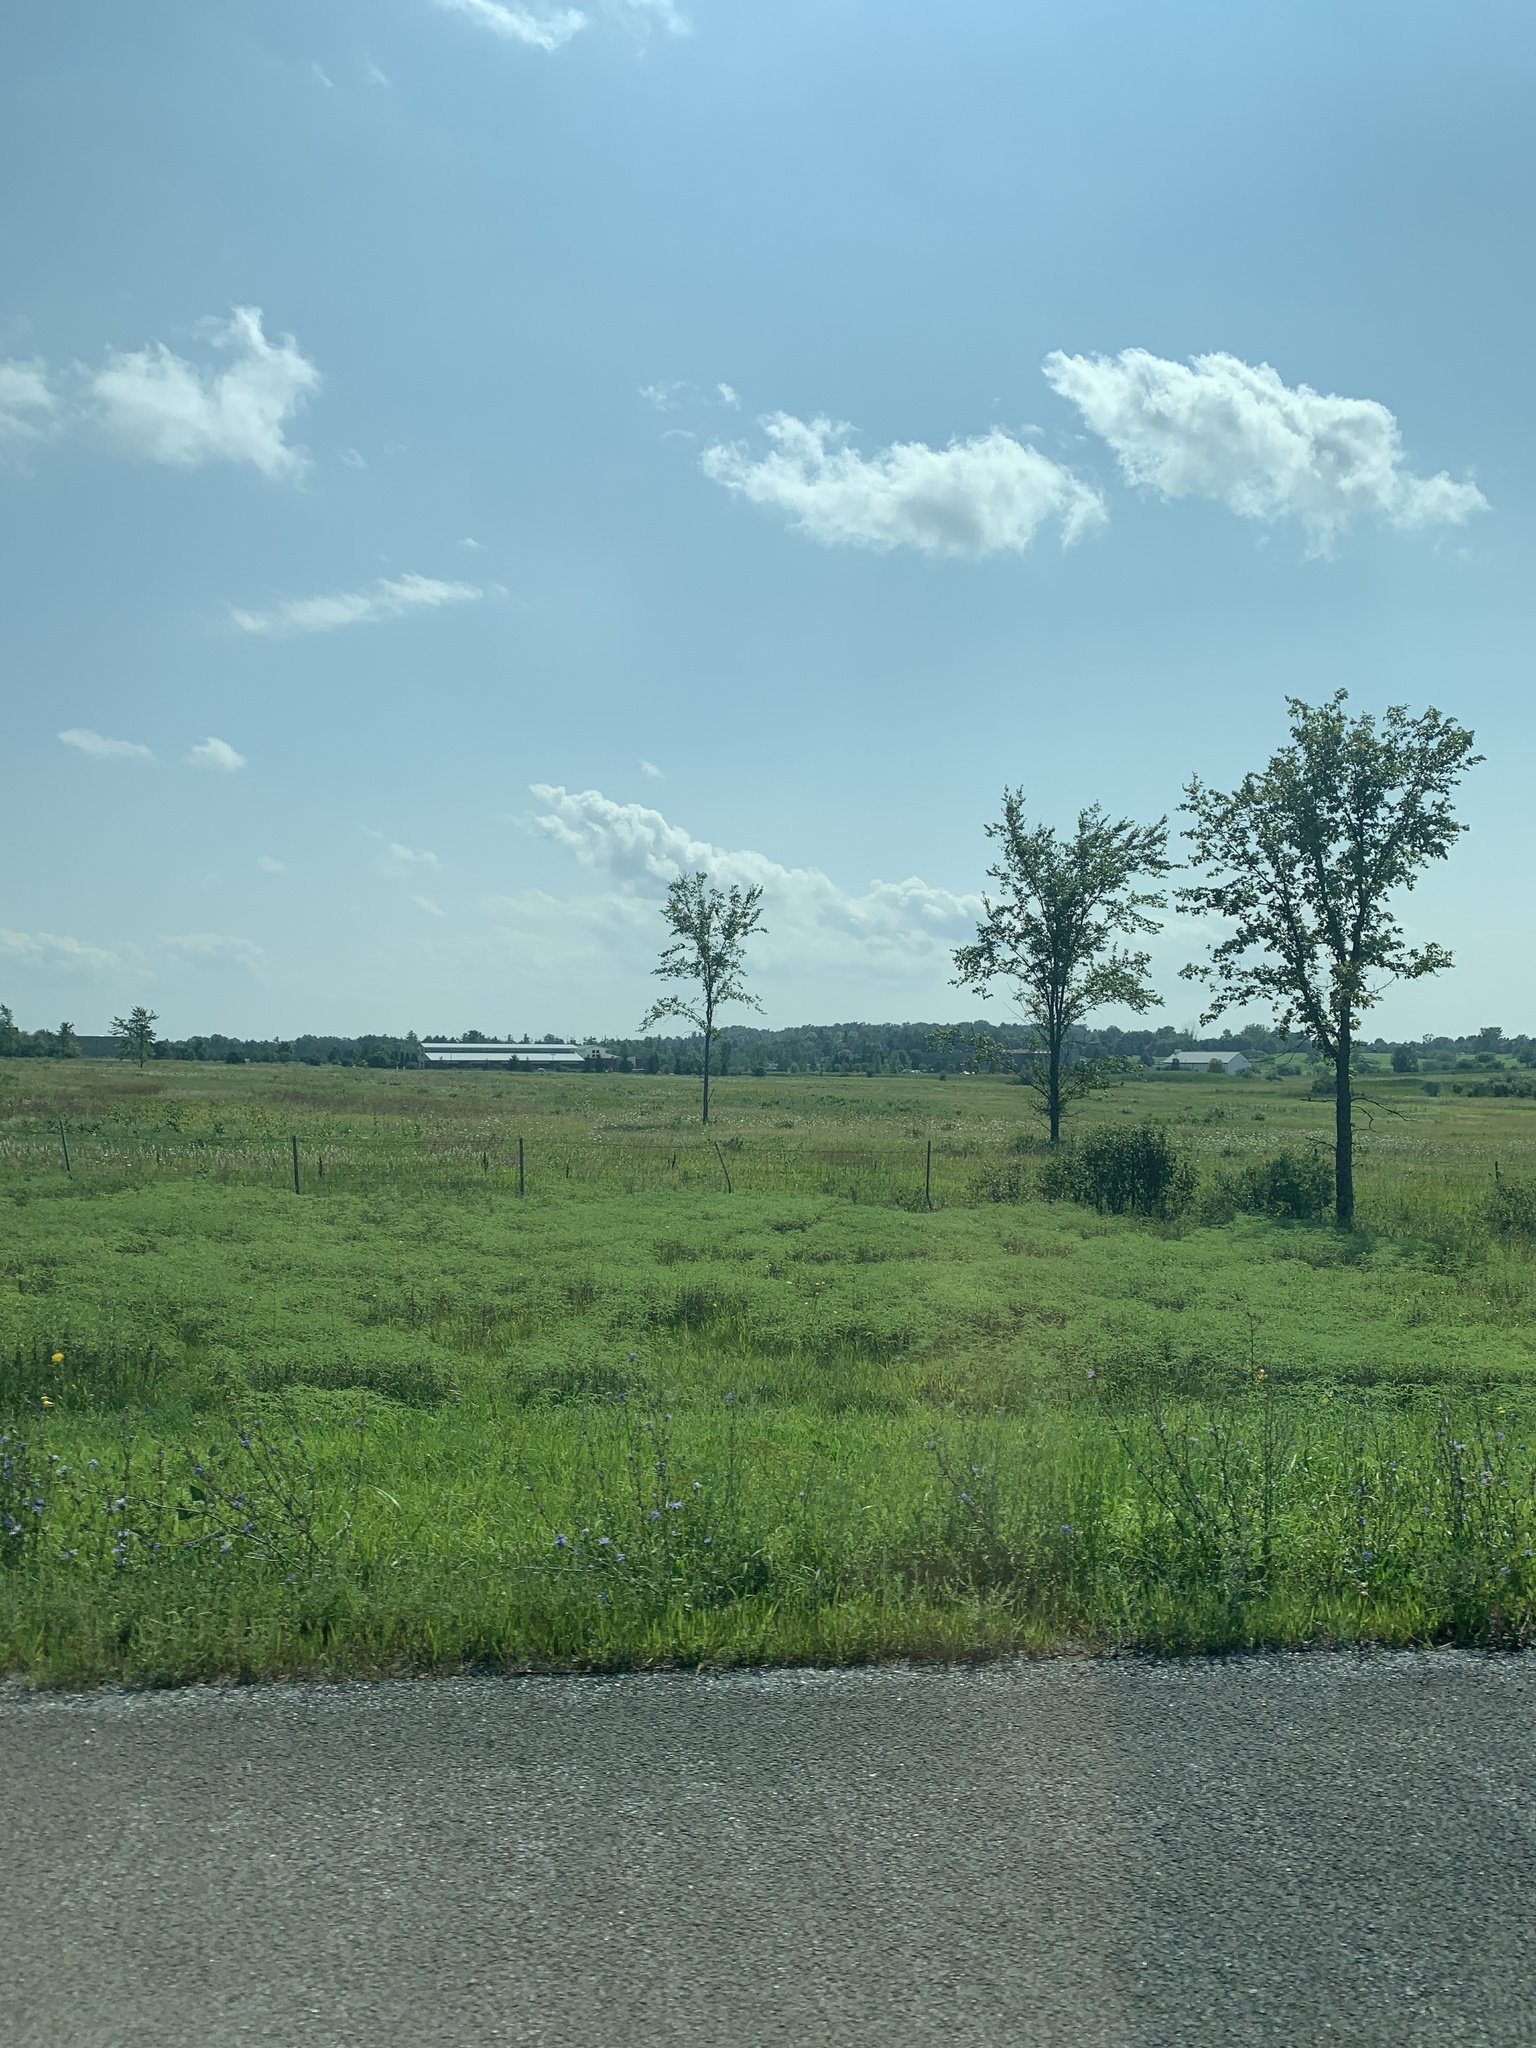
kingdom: Plantae
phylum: Tracheophyta
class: Magnoliopsida
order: Rosales
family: Ulmaceae
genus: Ulmus
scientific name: Ulmus americana
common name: American elm
